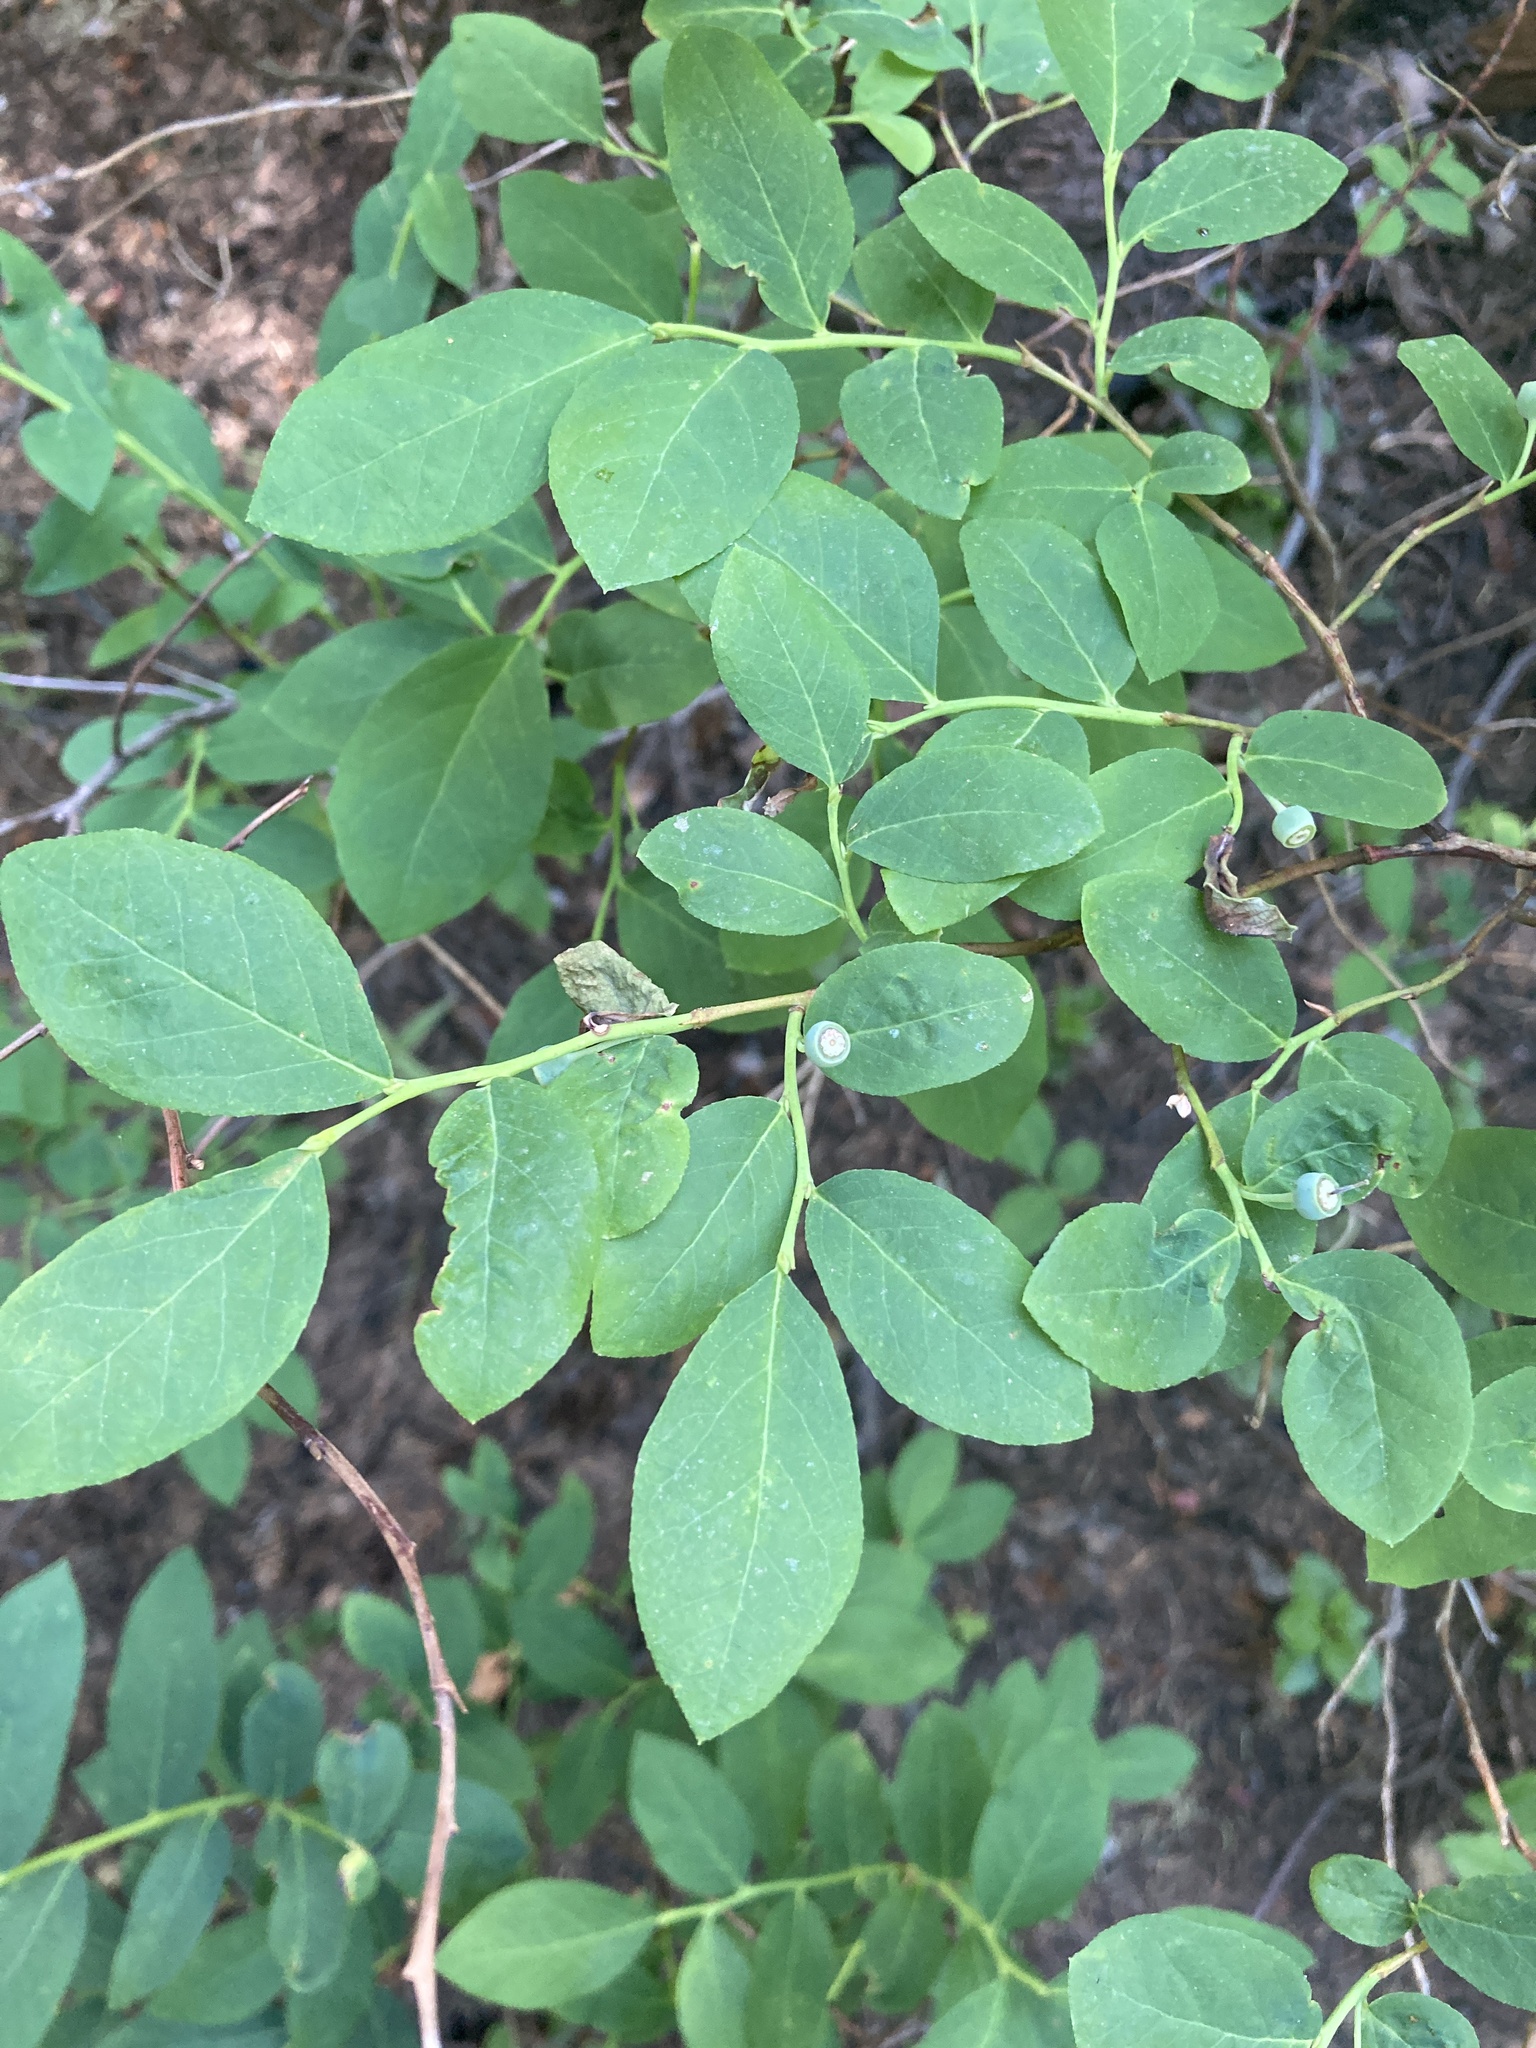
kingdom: Plantae
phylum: Tracheophyta
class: Magnoliopsida
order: Ericales
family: Ericaceae
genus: Vaccinium
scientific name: Vaccinium membranaceum
